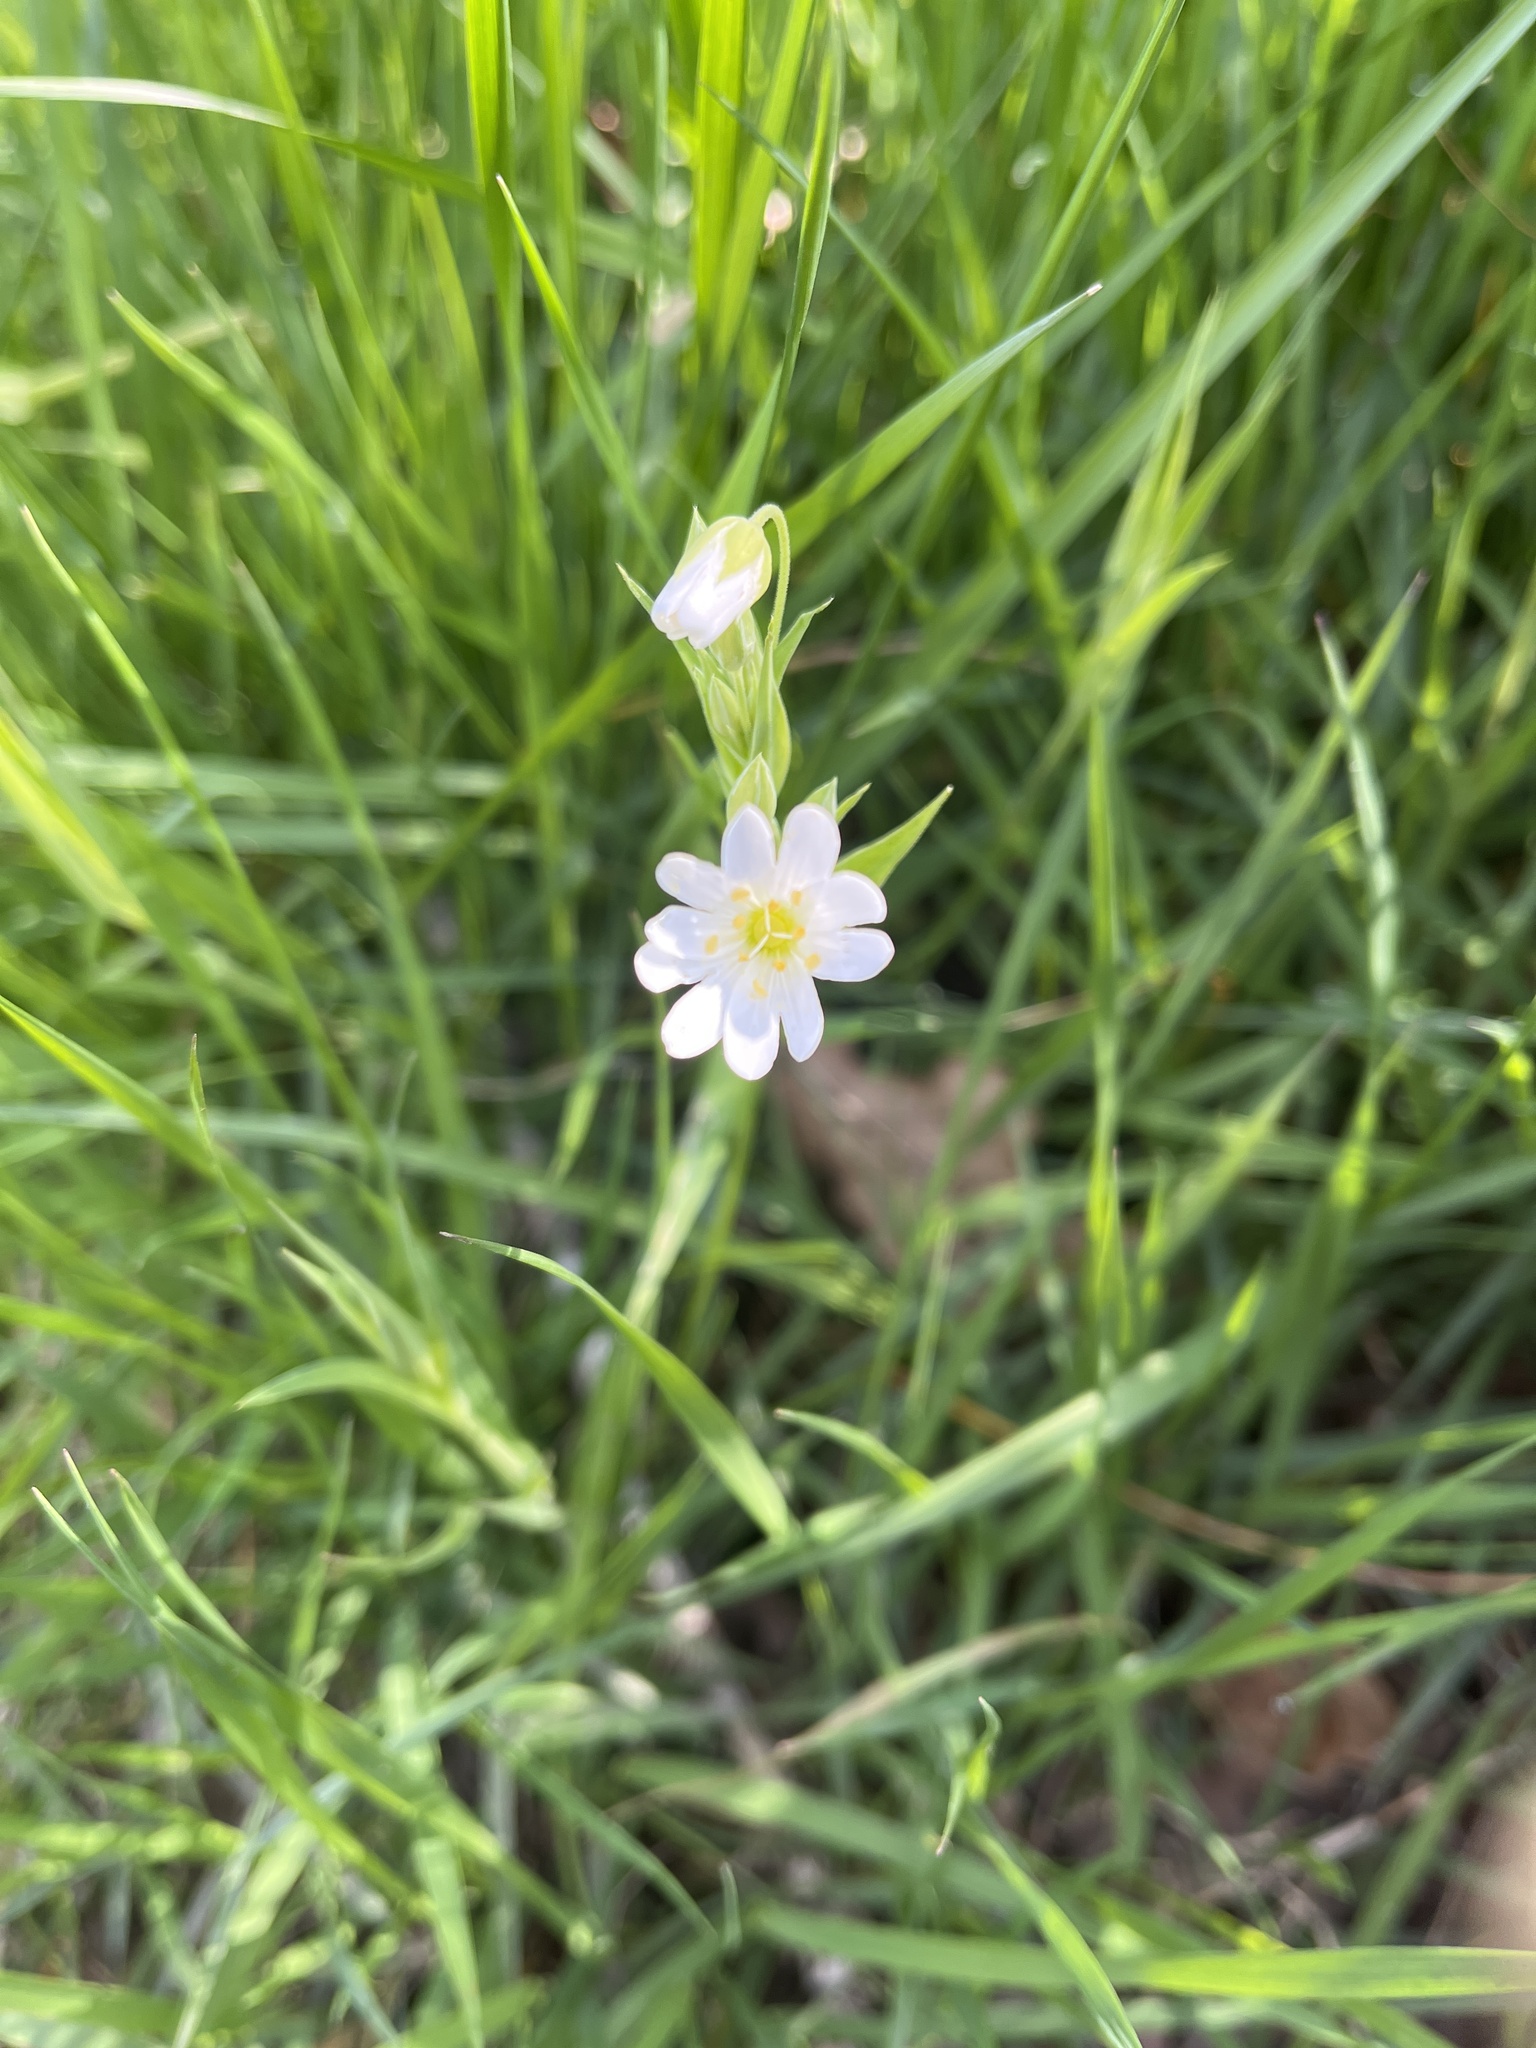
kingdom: Plantae
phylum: Tracheophyta
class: Magnoliopsida
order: Caryophyllales
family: Caryophyllaceae
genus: Rabelera
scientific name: Rabelera holostea
